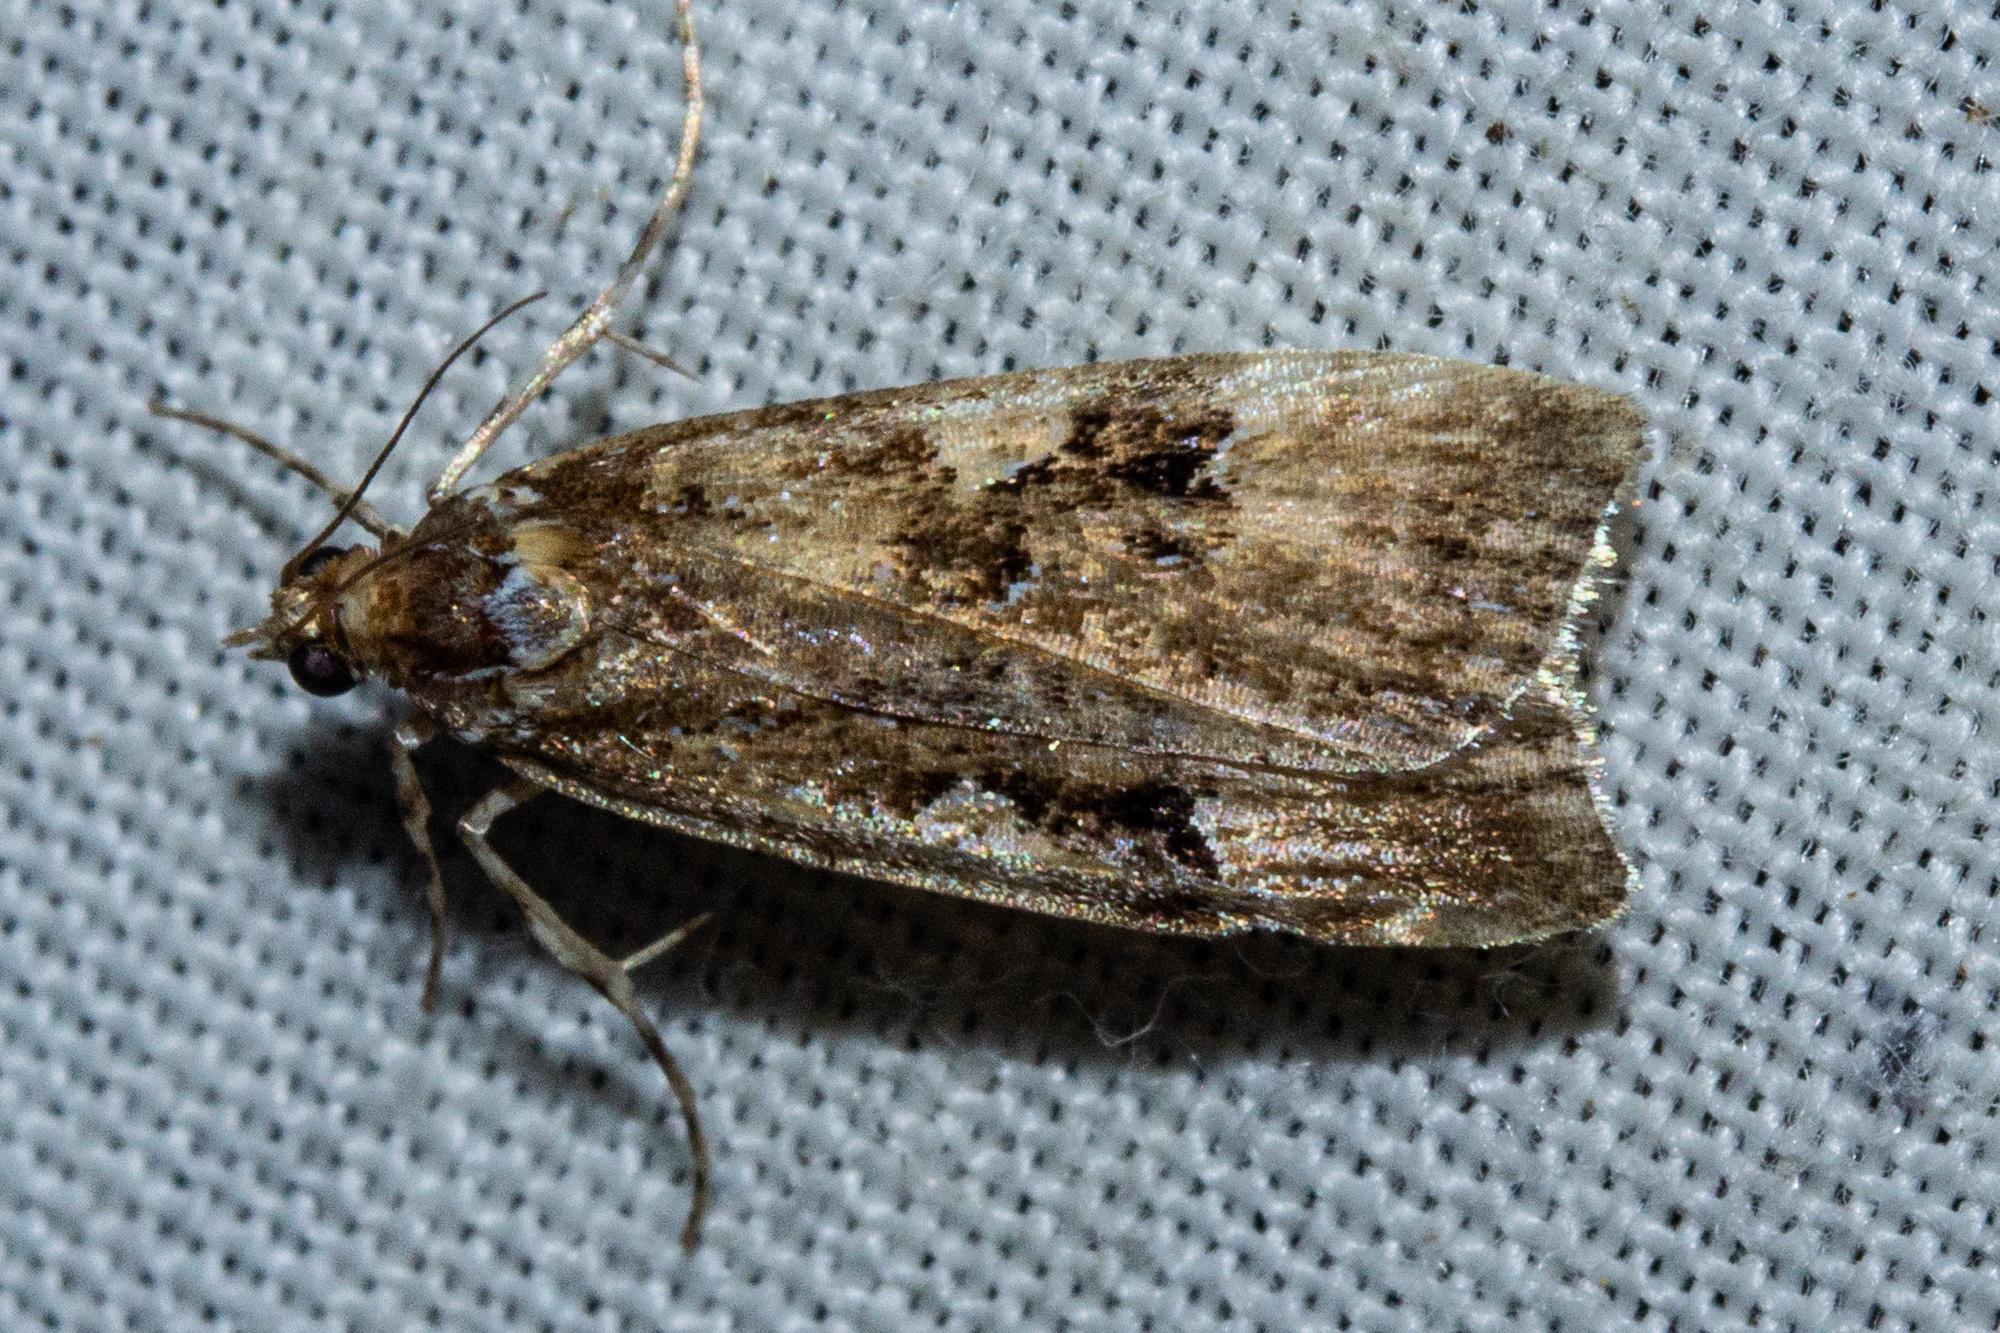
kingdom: Animalia
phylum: Arthropoda
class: Insecta
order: Lepidoptera
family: Crambidae
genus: Scoparia
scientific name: Scoparia ustimacula
